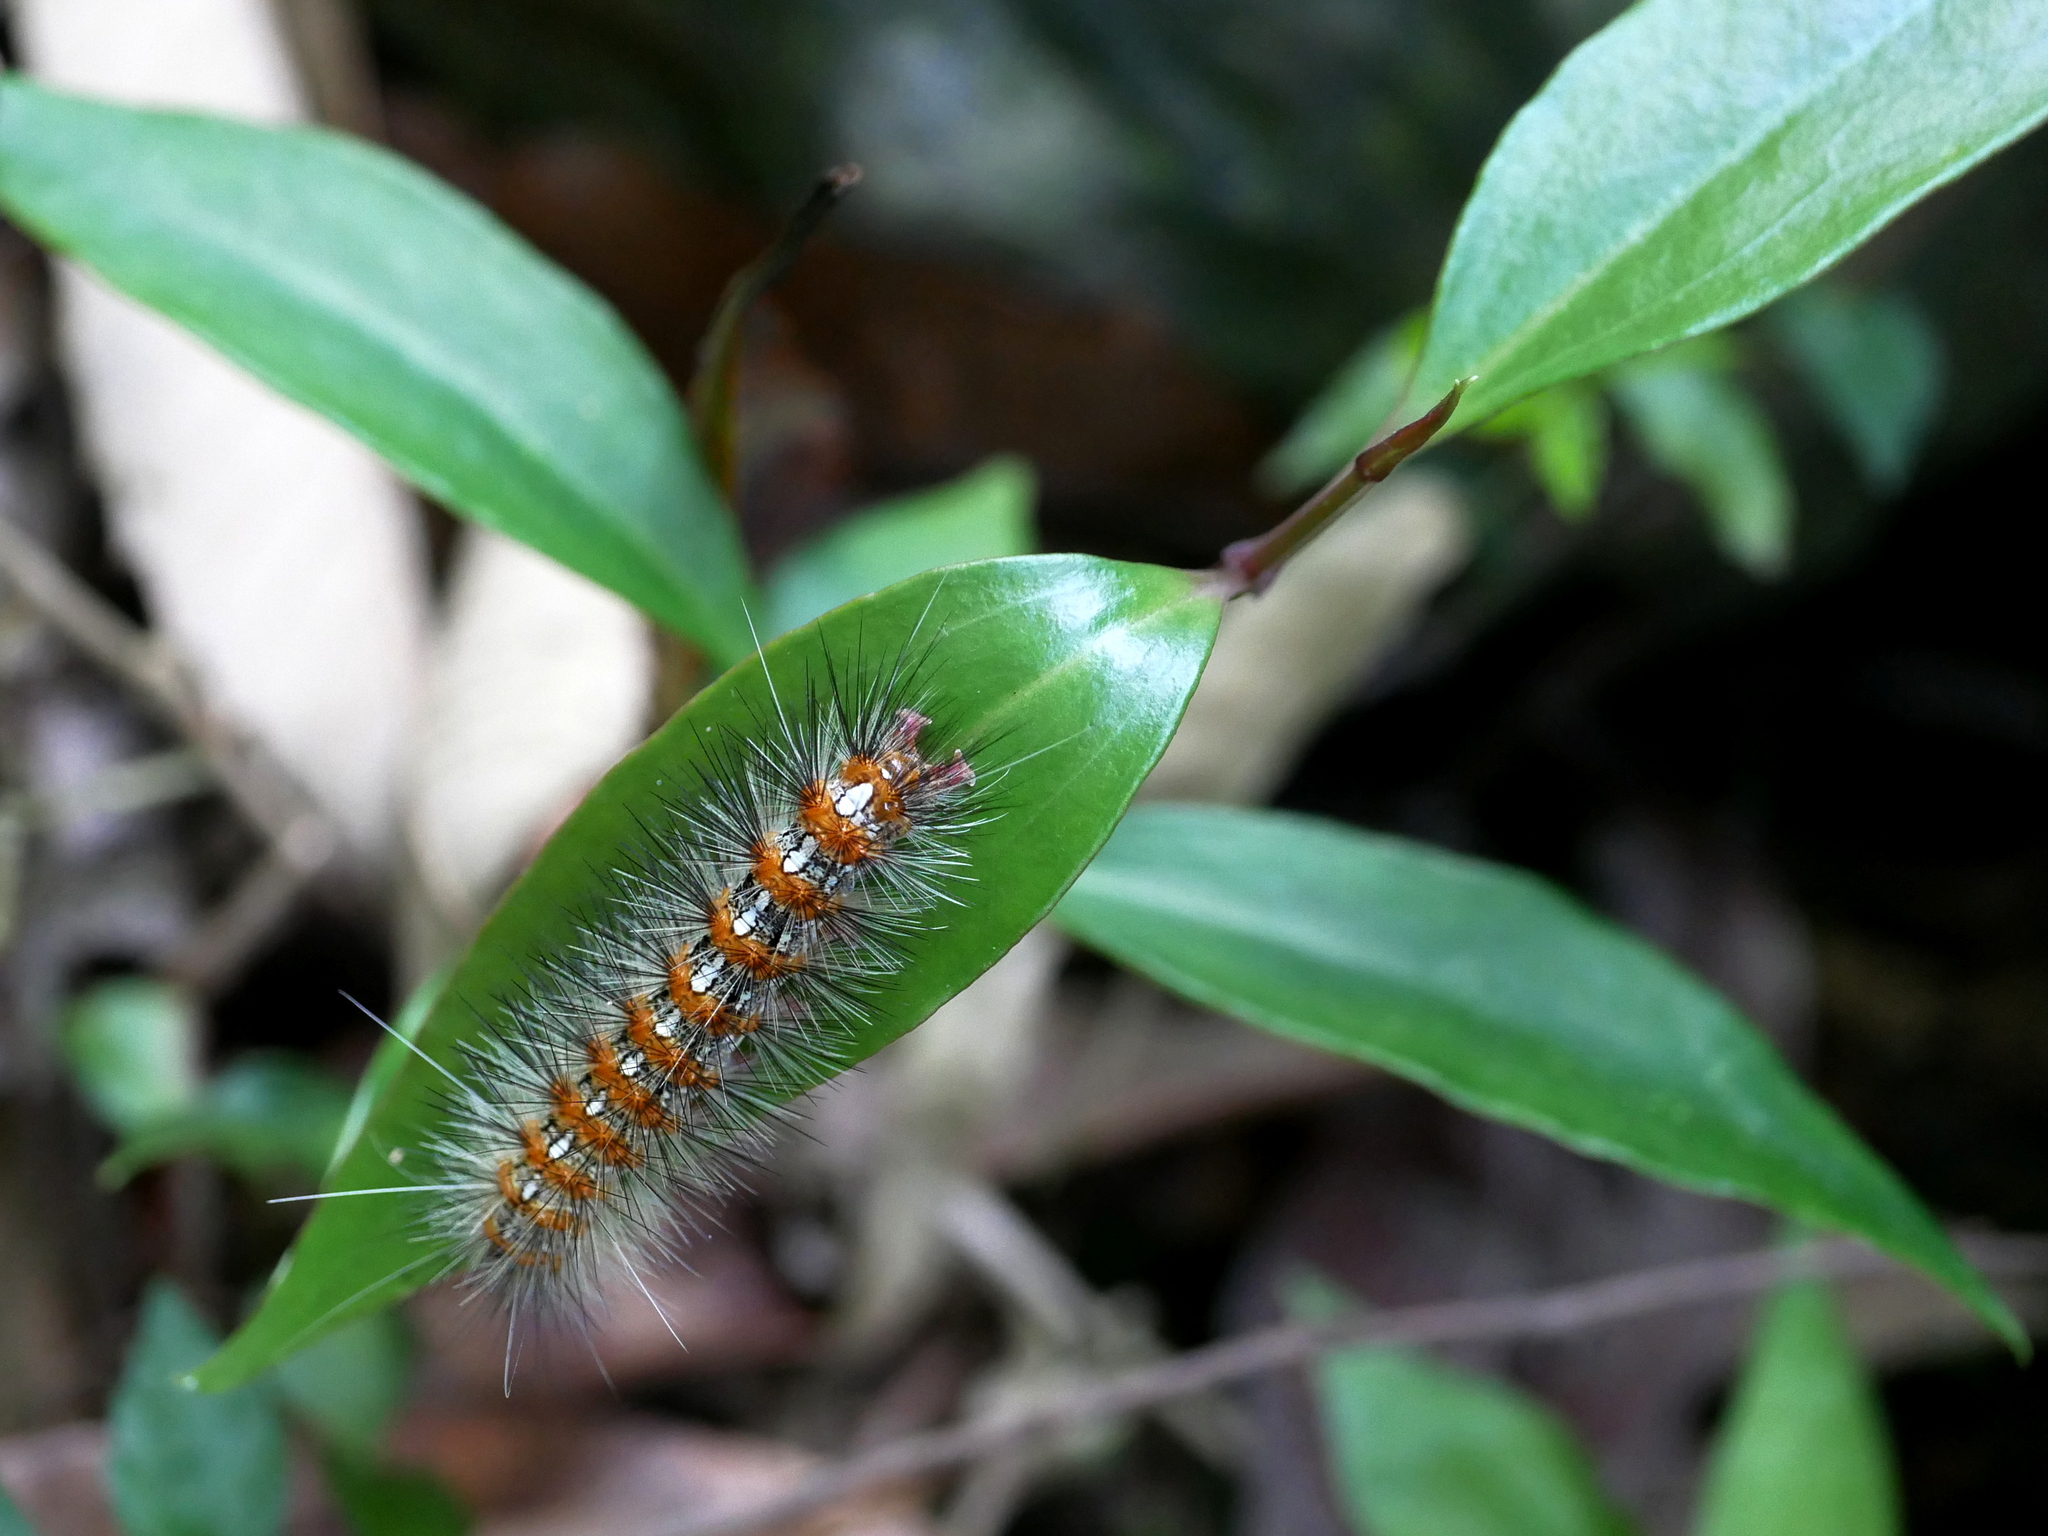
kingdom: Animalia
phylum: Arthropoda
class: Insecta
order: Lepidoptera
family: Erebidae
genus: Lemyra
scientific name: Lemyra imparilis
